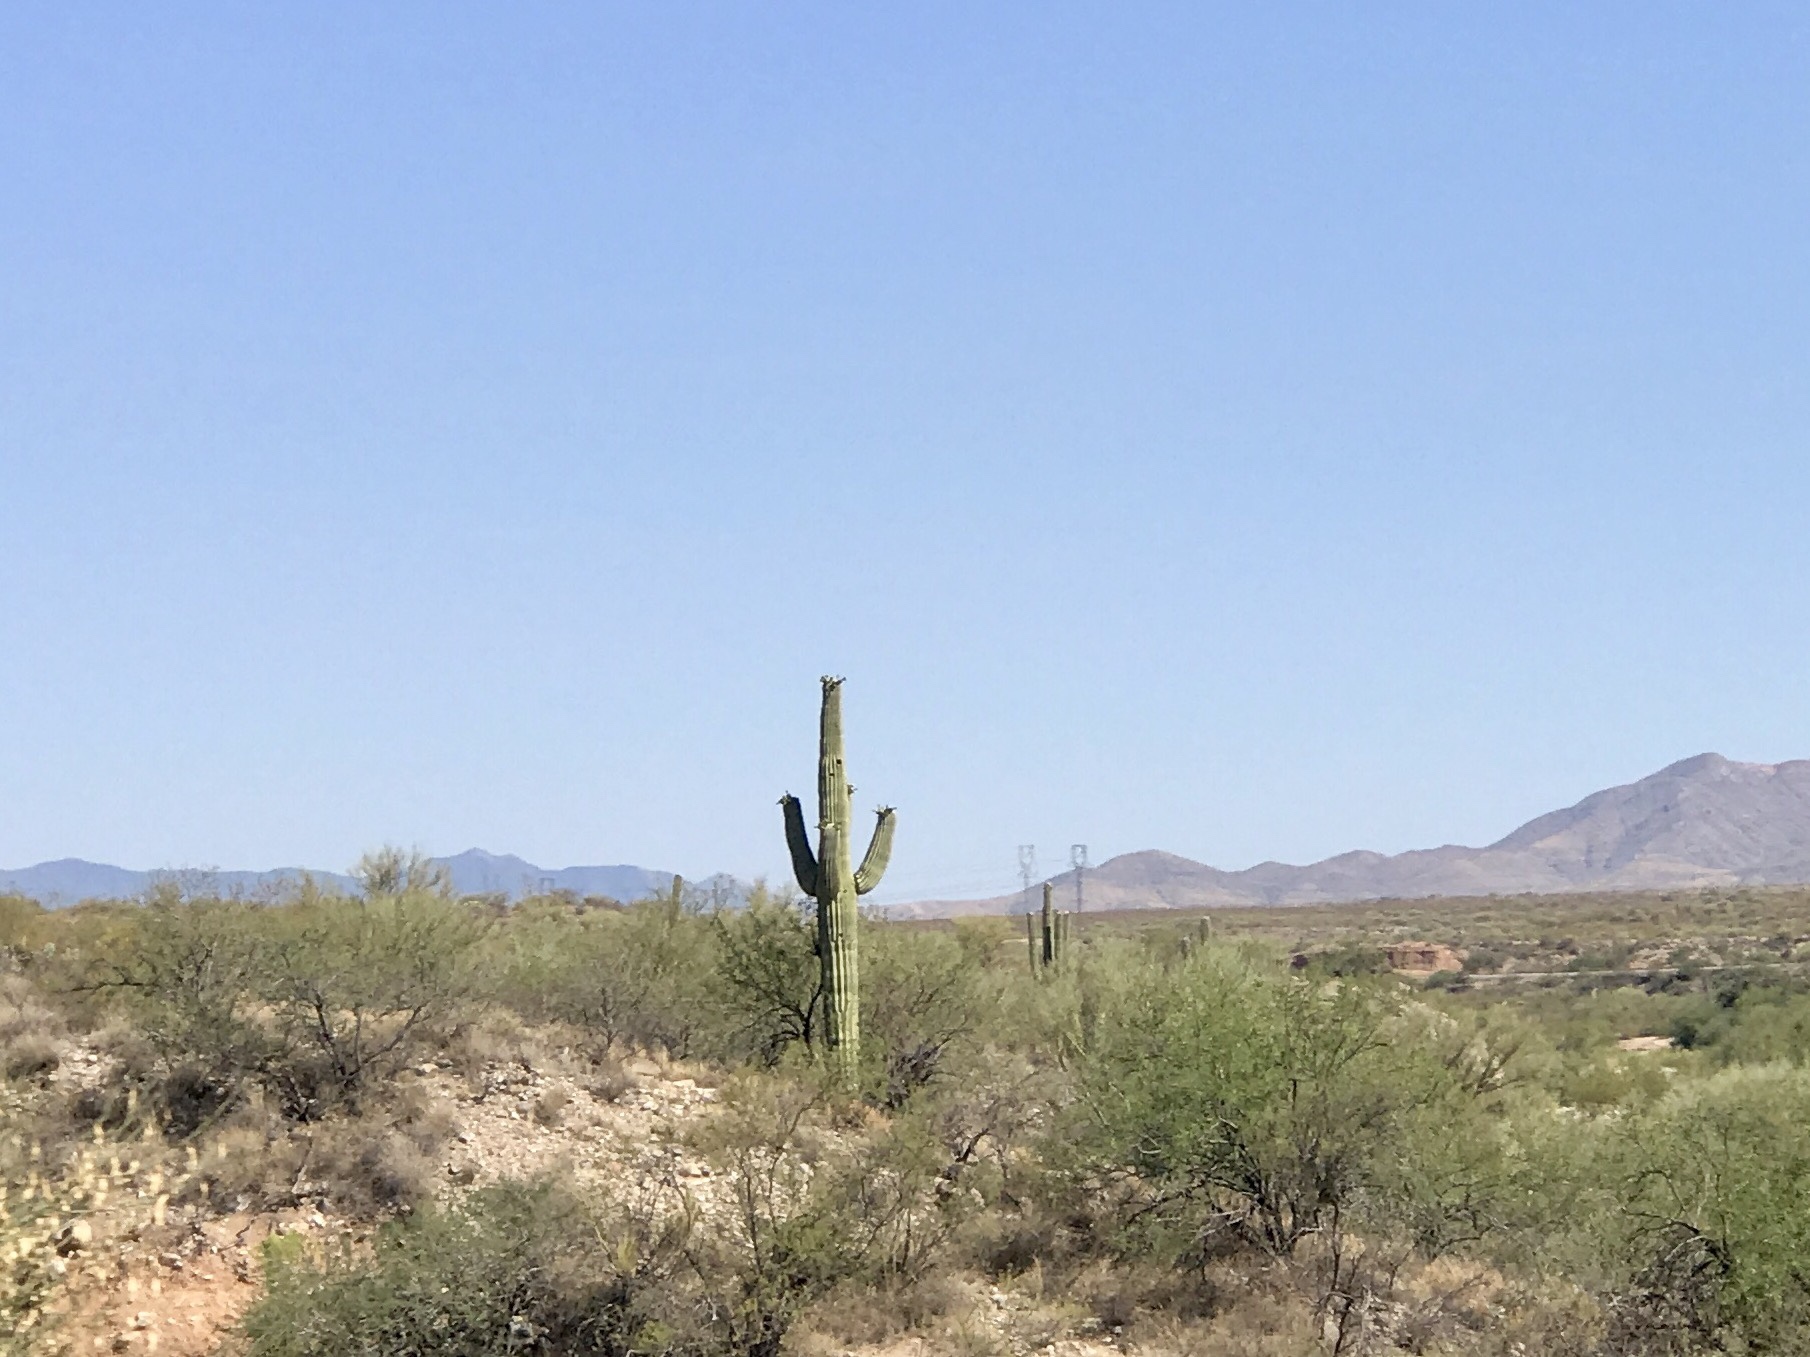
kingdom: Plantae
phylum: Tracheophyta
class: Magnoliopsida
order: Caryophyllales
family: Cactaceae
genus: Carnegiea
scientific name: Carnegiea gigantea
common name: Saguaro
